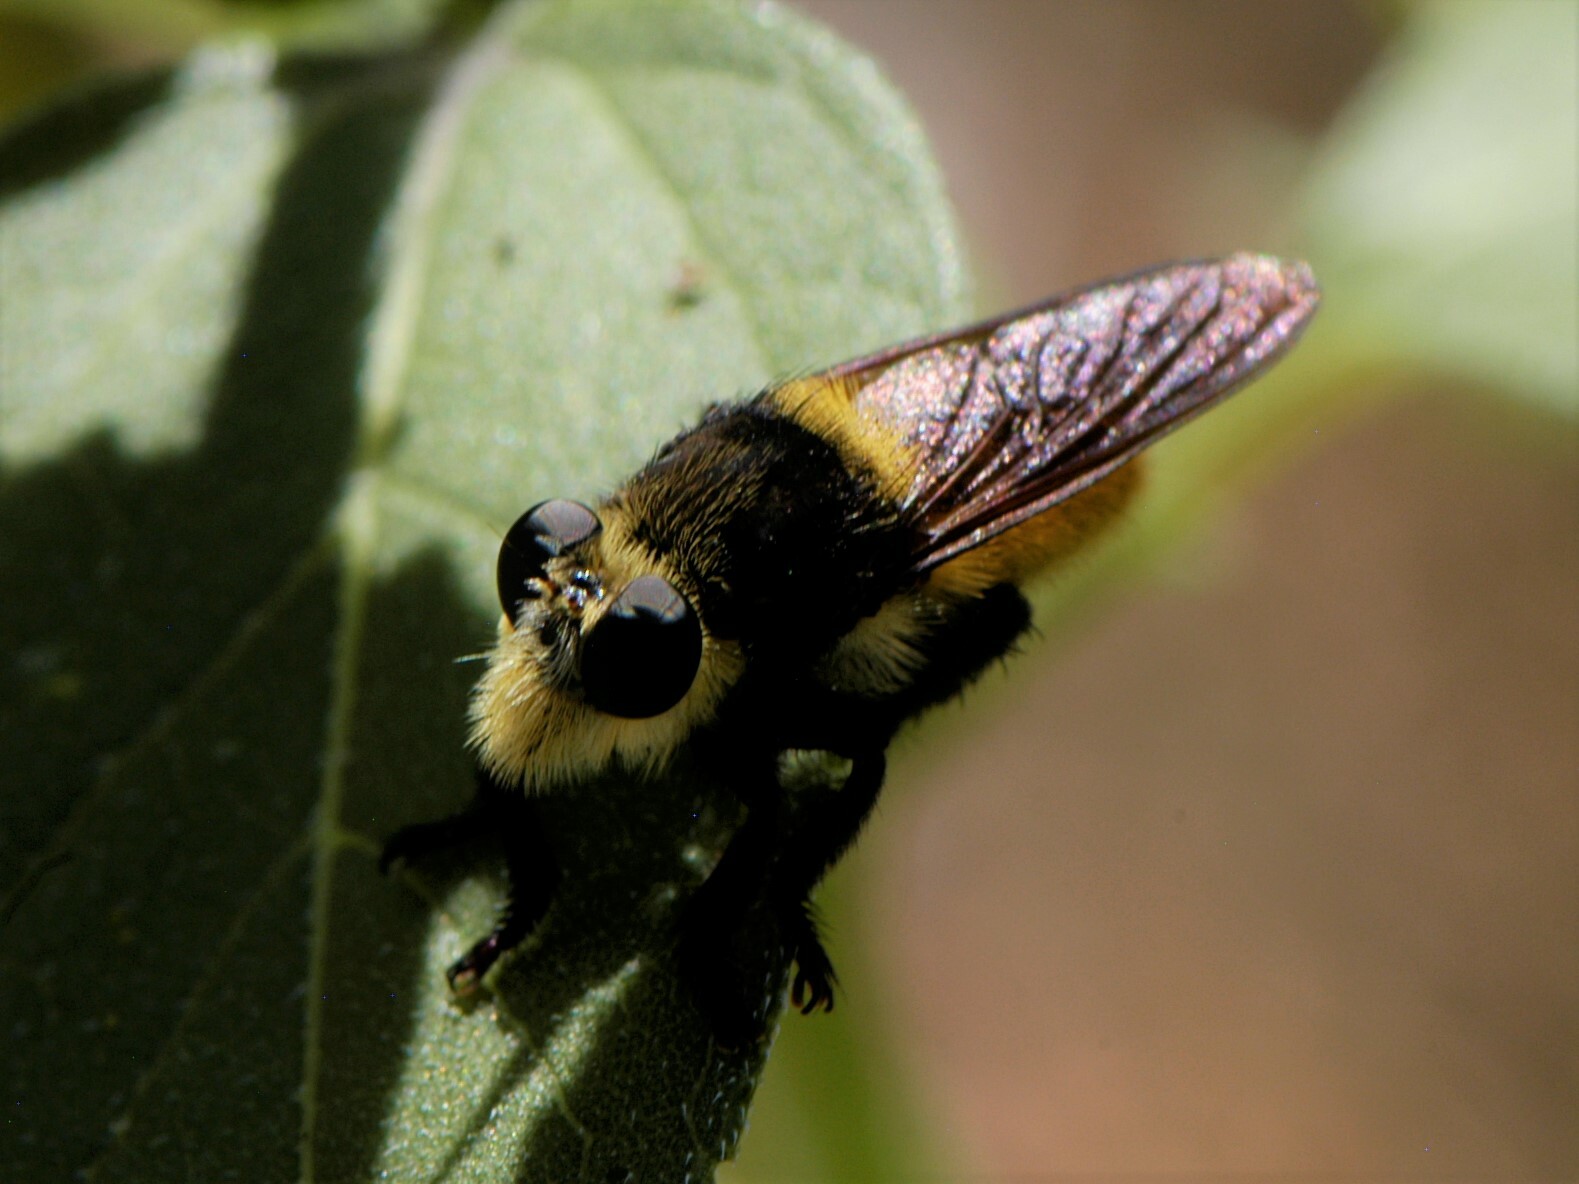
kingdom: Animalia
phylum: Arthropoda
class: Insecta
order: Diptera
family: Asilidae
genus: Mallophora
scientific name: Mallophora fautrix
